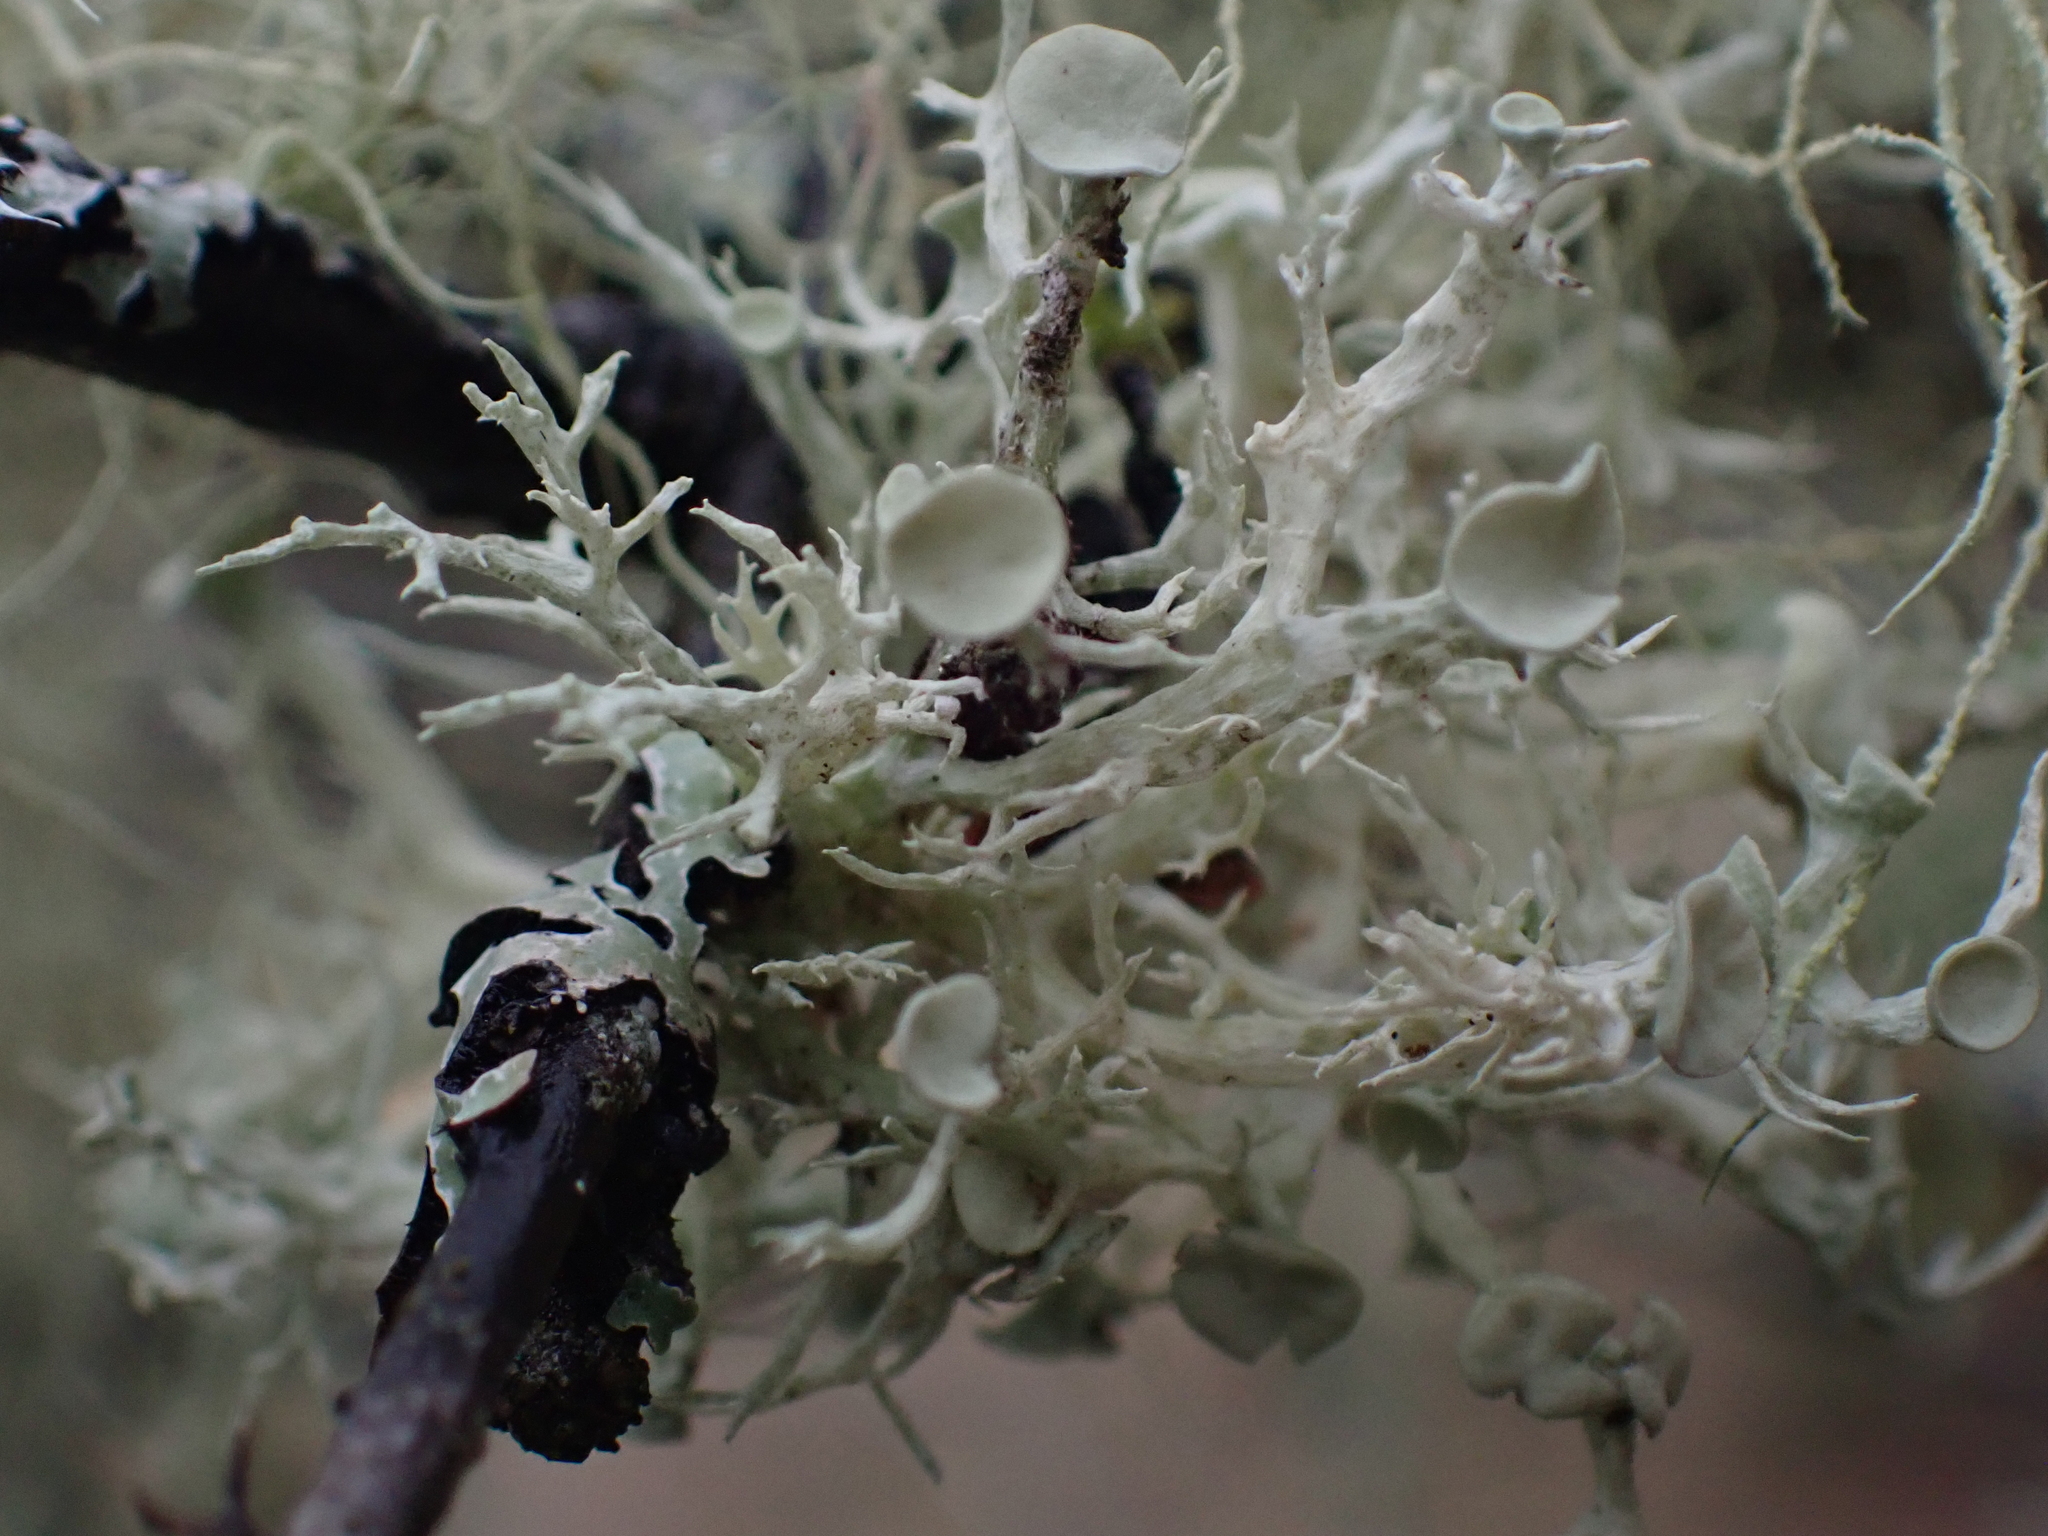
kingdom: Fungi
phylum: Ascomycota
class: Lecanoromycetes
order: Lecanorales
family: Ramalinaceae
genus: Ramalina
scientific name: Ramalina dilacerata
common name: Punctured bushy lichen
